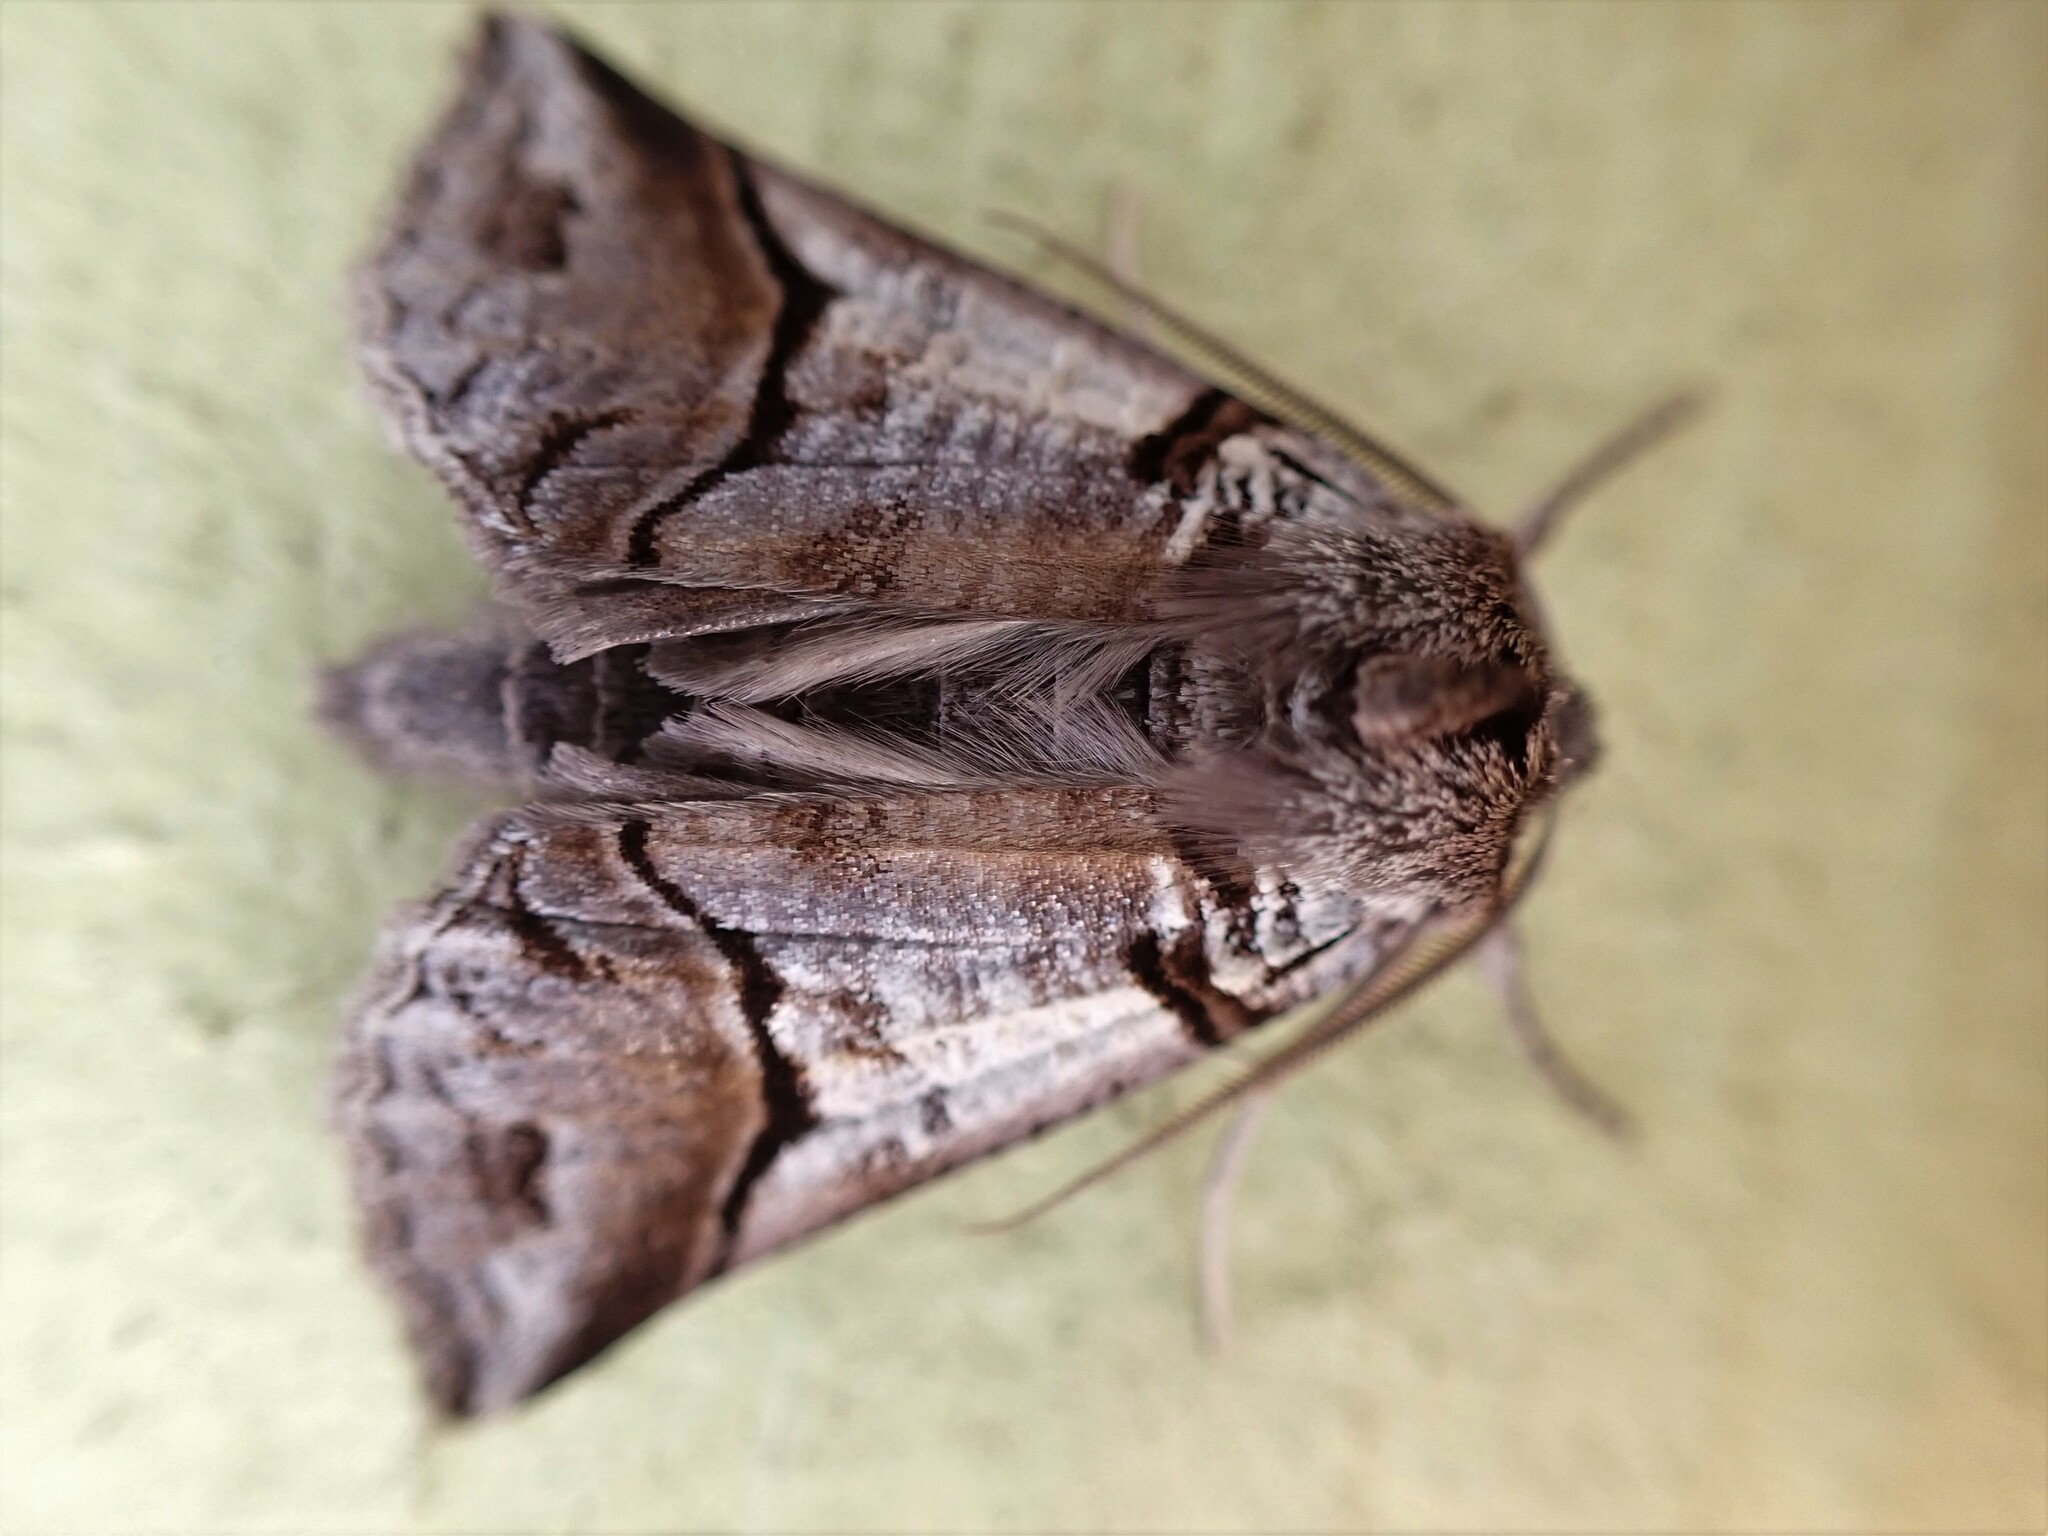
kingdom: Animalia
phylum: Arthropoda
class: Insecta
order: Lepidoptera
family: Geometridae
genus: Declana
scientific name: Declana
